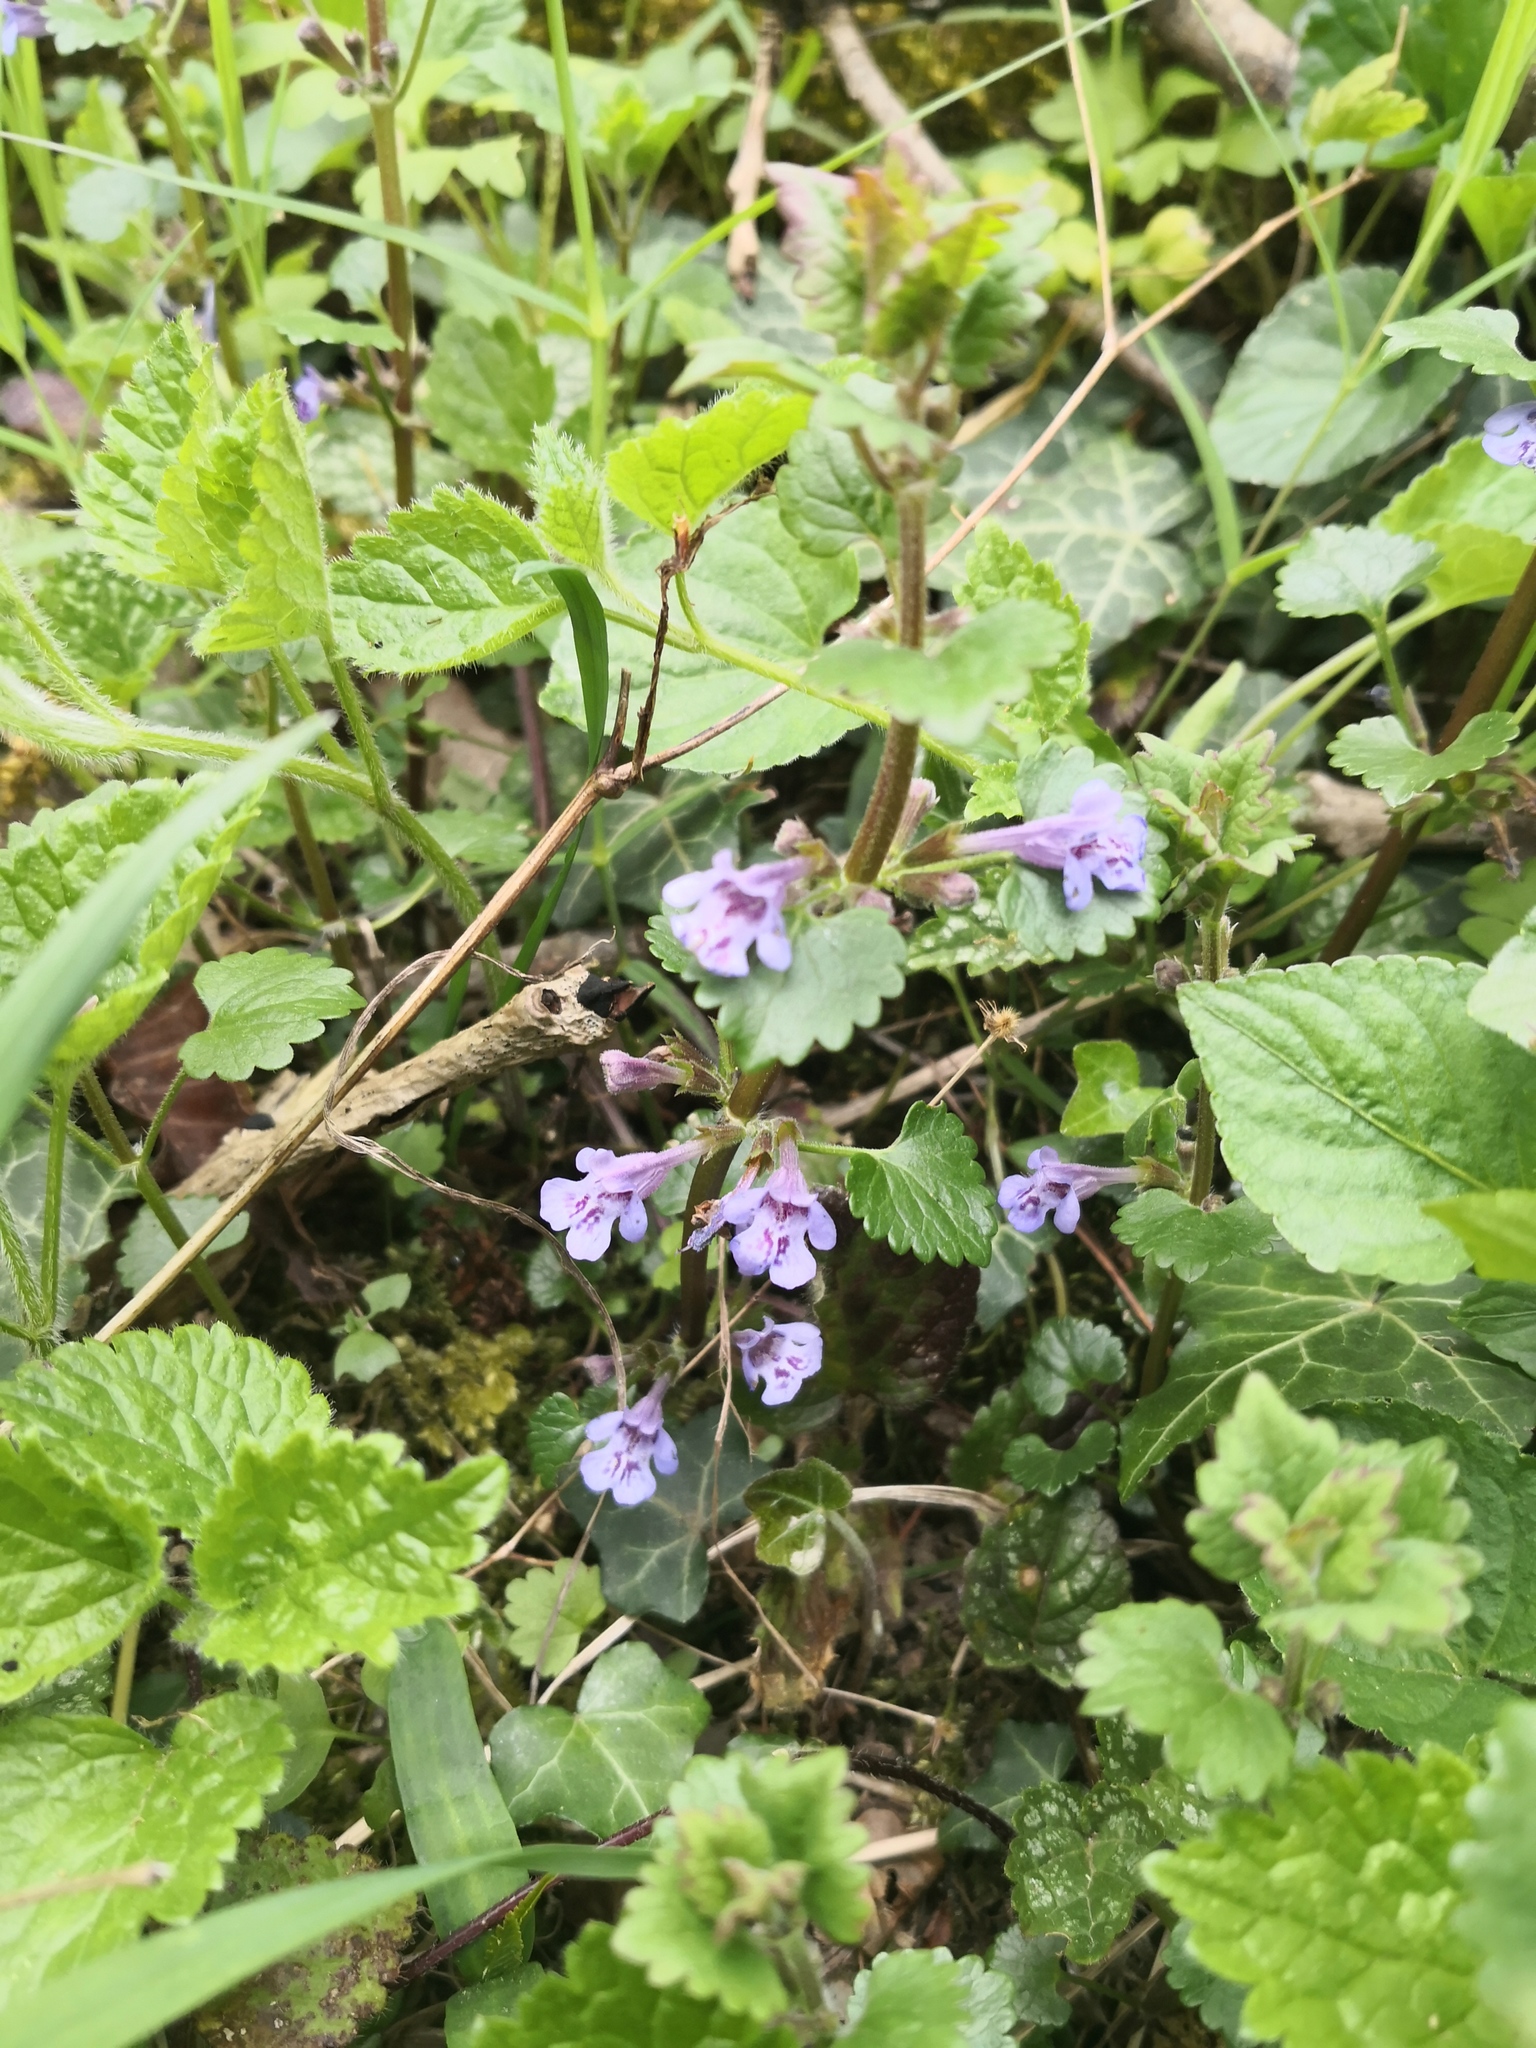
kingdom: Plantae
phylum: Tracheophyta
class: Magnoliopsida
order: Lamiales
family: Lamiaceae
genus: Glechoma
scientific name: Glechoma hederacea
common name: Ground ivy
